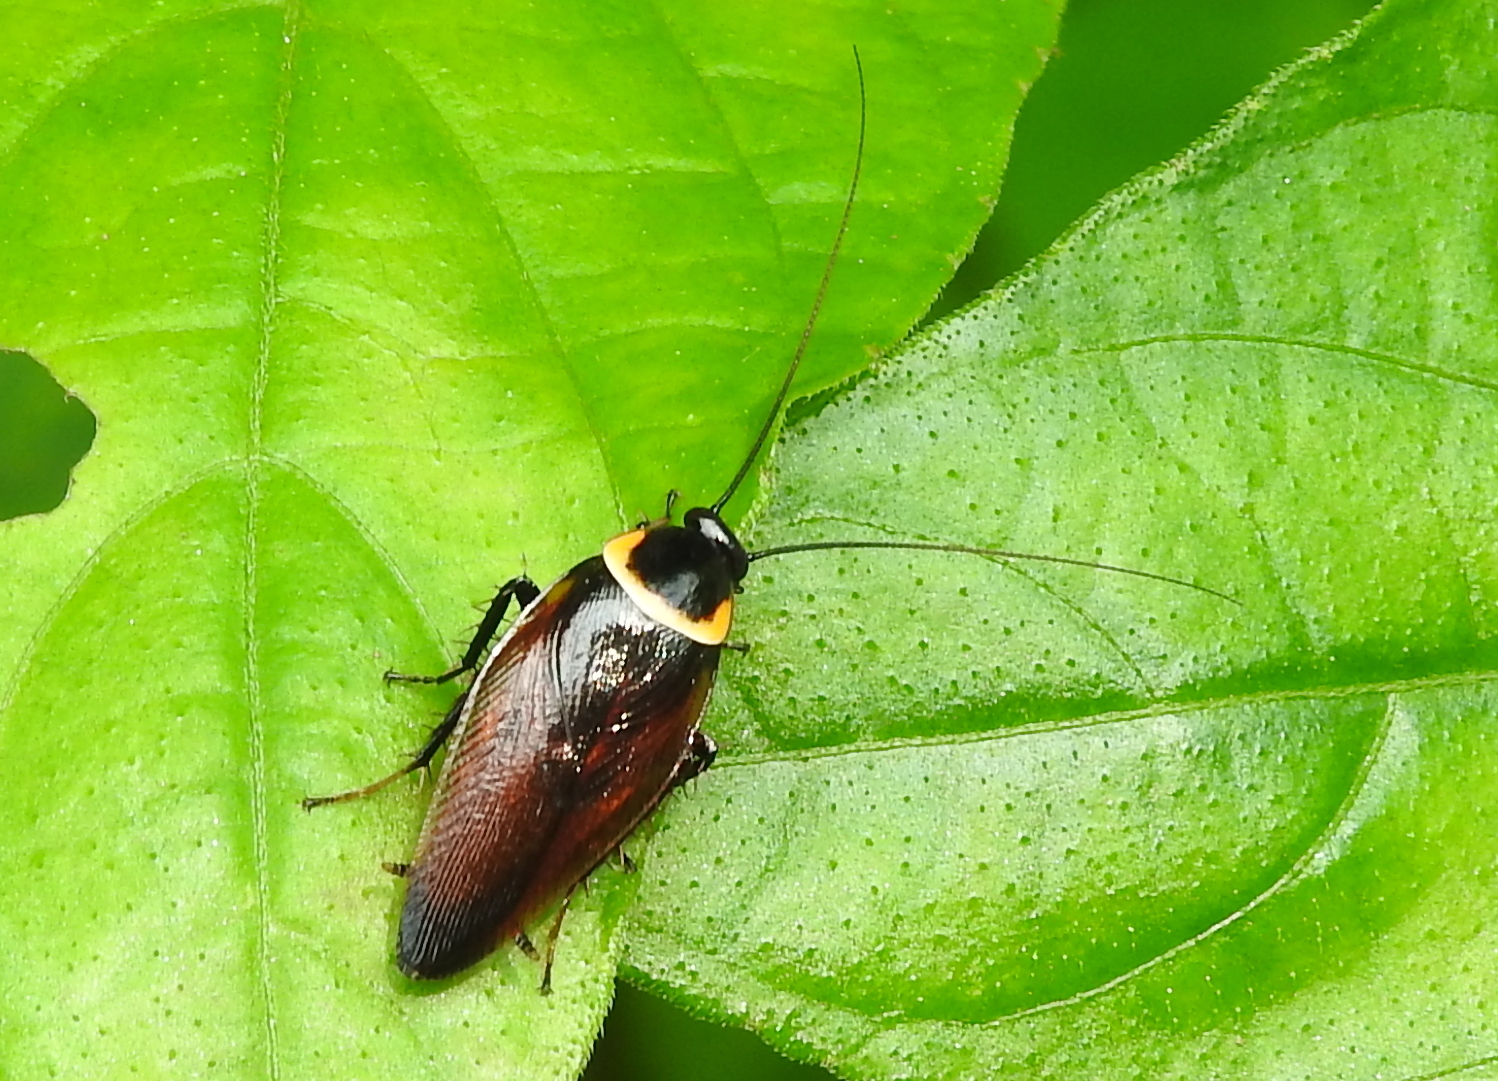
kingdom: Animalia
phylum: Arthropoda
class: Insecta
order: Blattodea
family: Ectobiidae
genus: Hemithyrsocera
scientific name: Hemithyrsocera palliata
